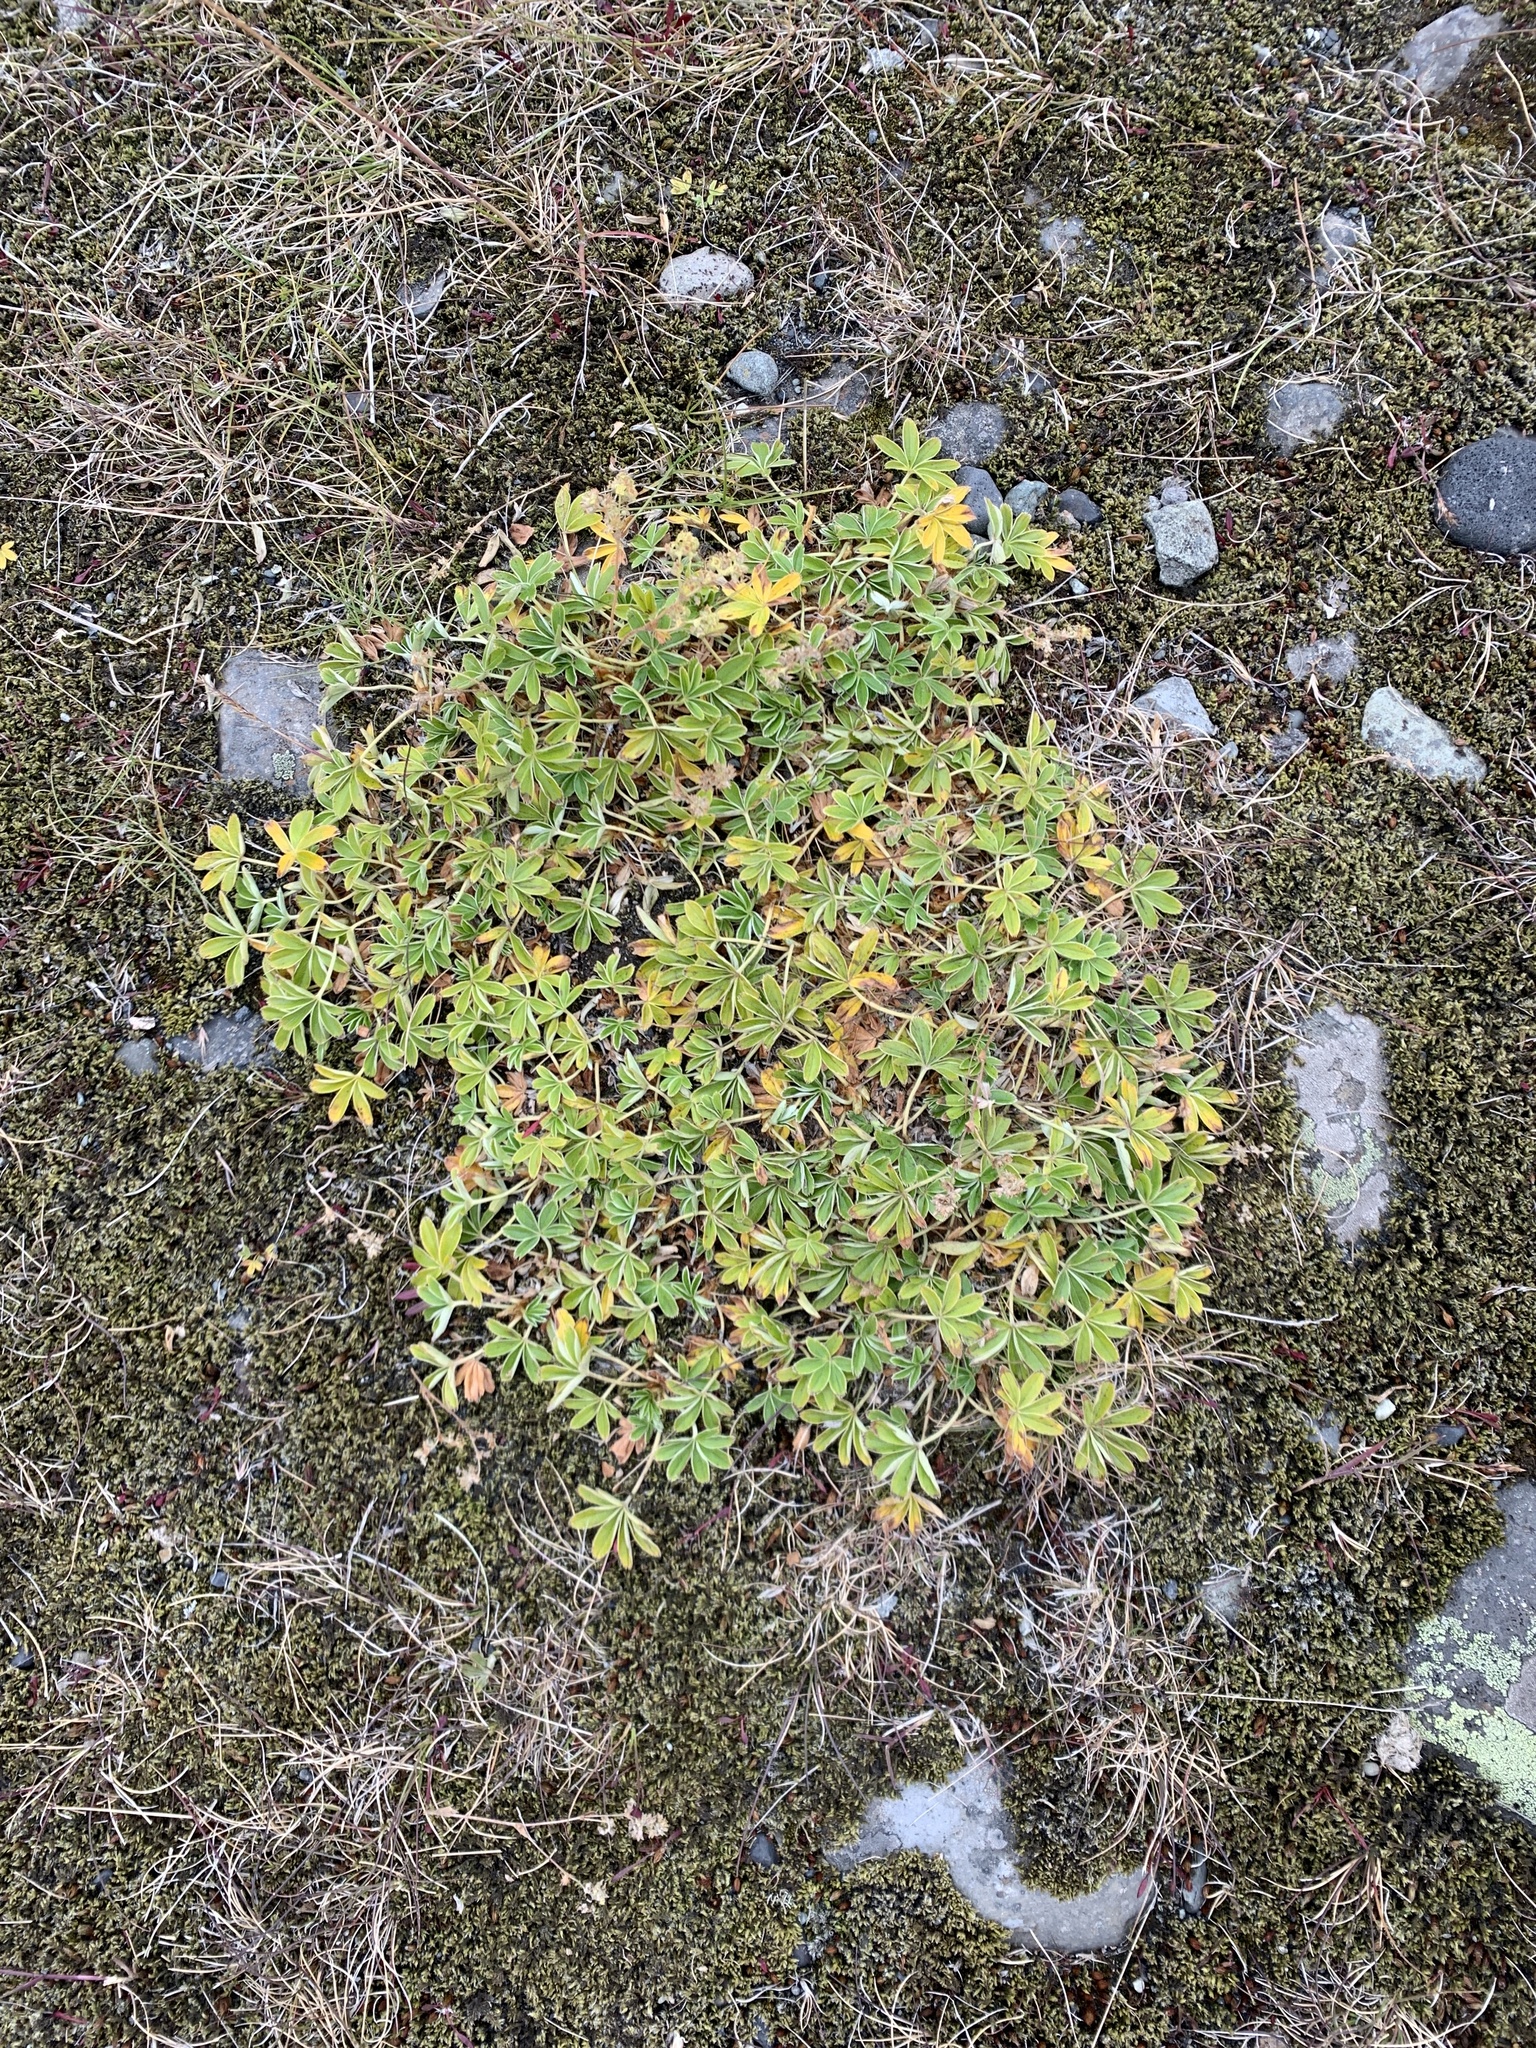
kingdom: Plantae
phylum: Tracheophyta
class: Magnoliopsida
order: Rosales
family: Rosaceae
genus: Alchemilla
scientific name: Alchemilla alpina
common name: Alpine lady's-mantle
